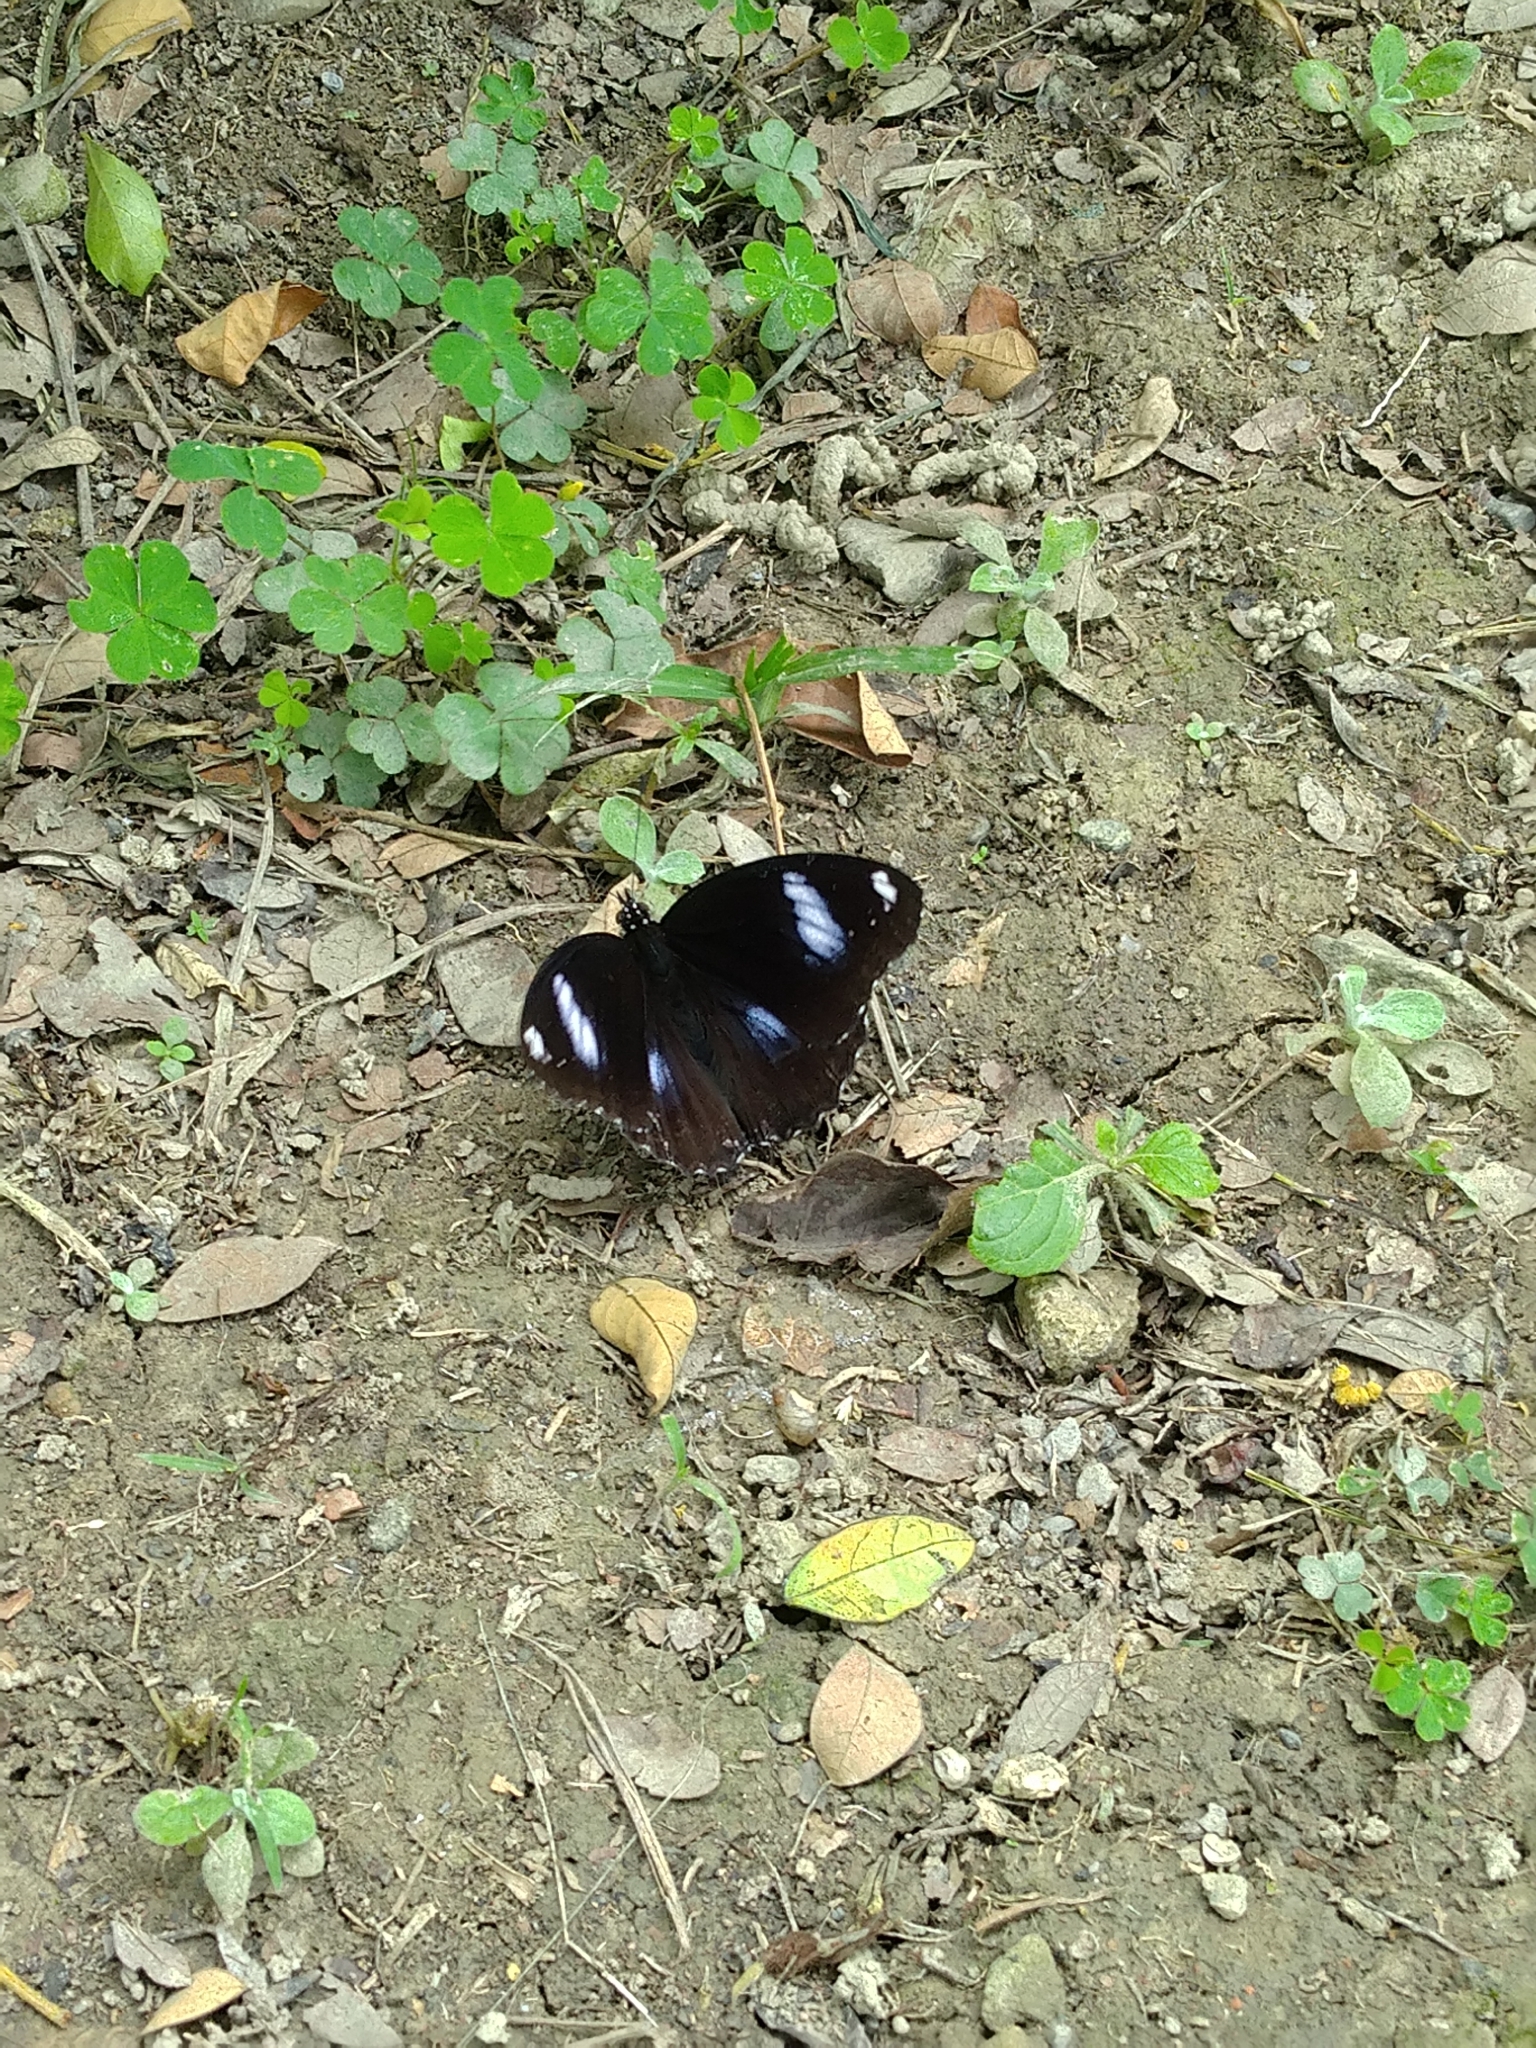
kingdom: Animalia
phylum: Arthropoda
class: Insecta
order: Lepidoptera
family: Nymphalidae
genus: Hypolimnas
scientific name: Hypolimnas bolina
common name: Great eggfly
